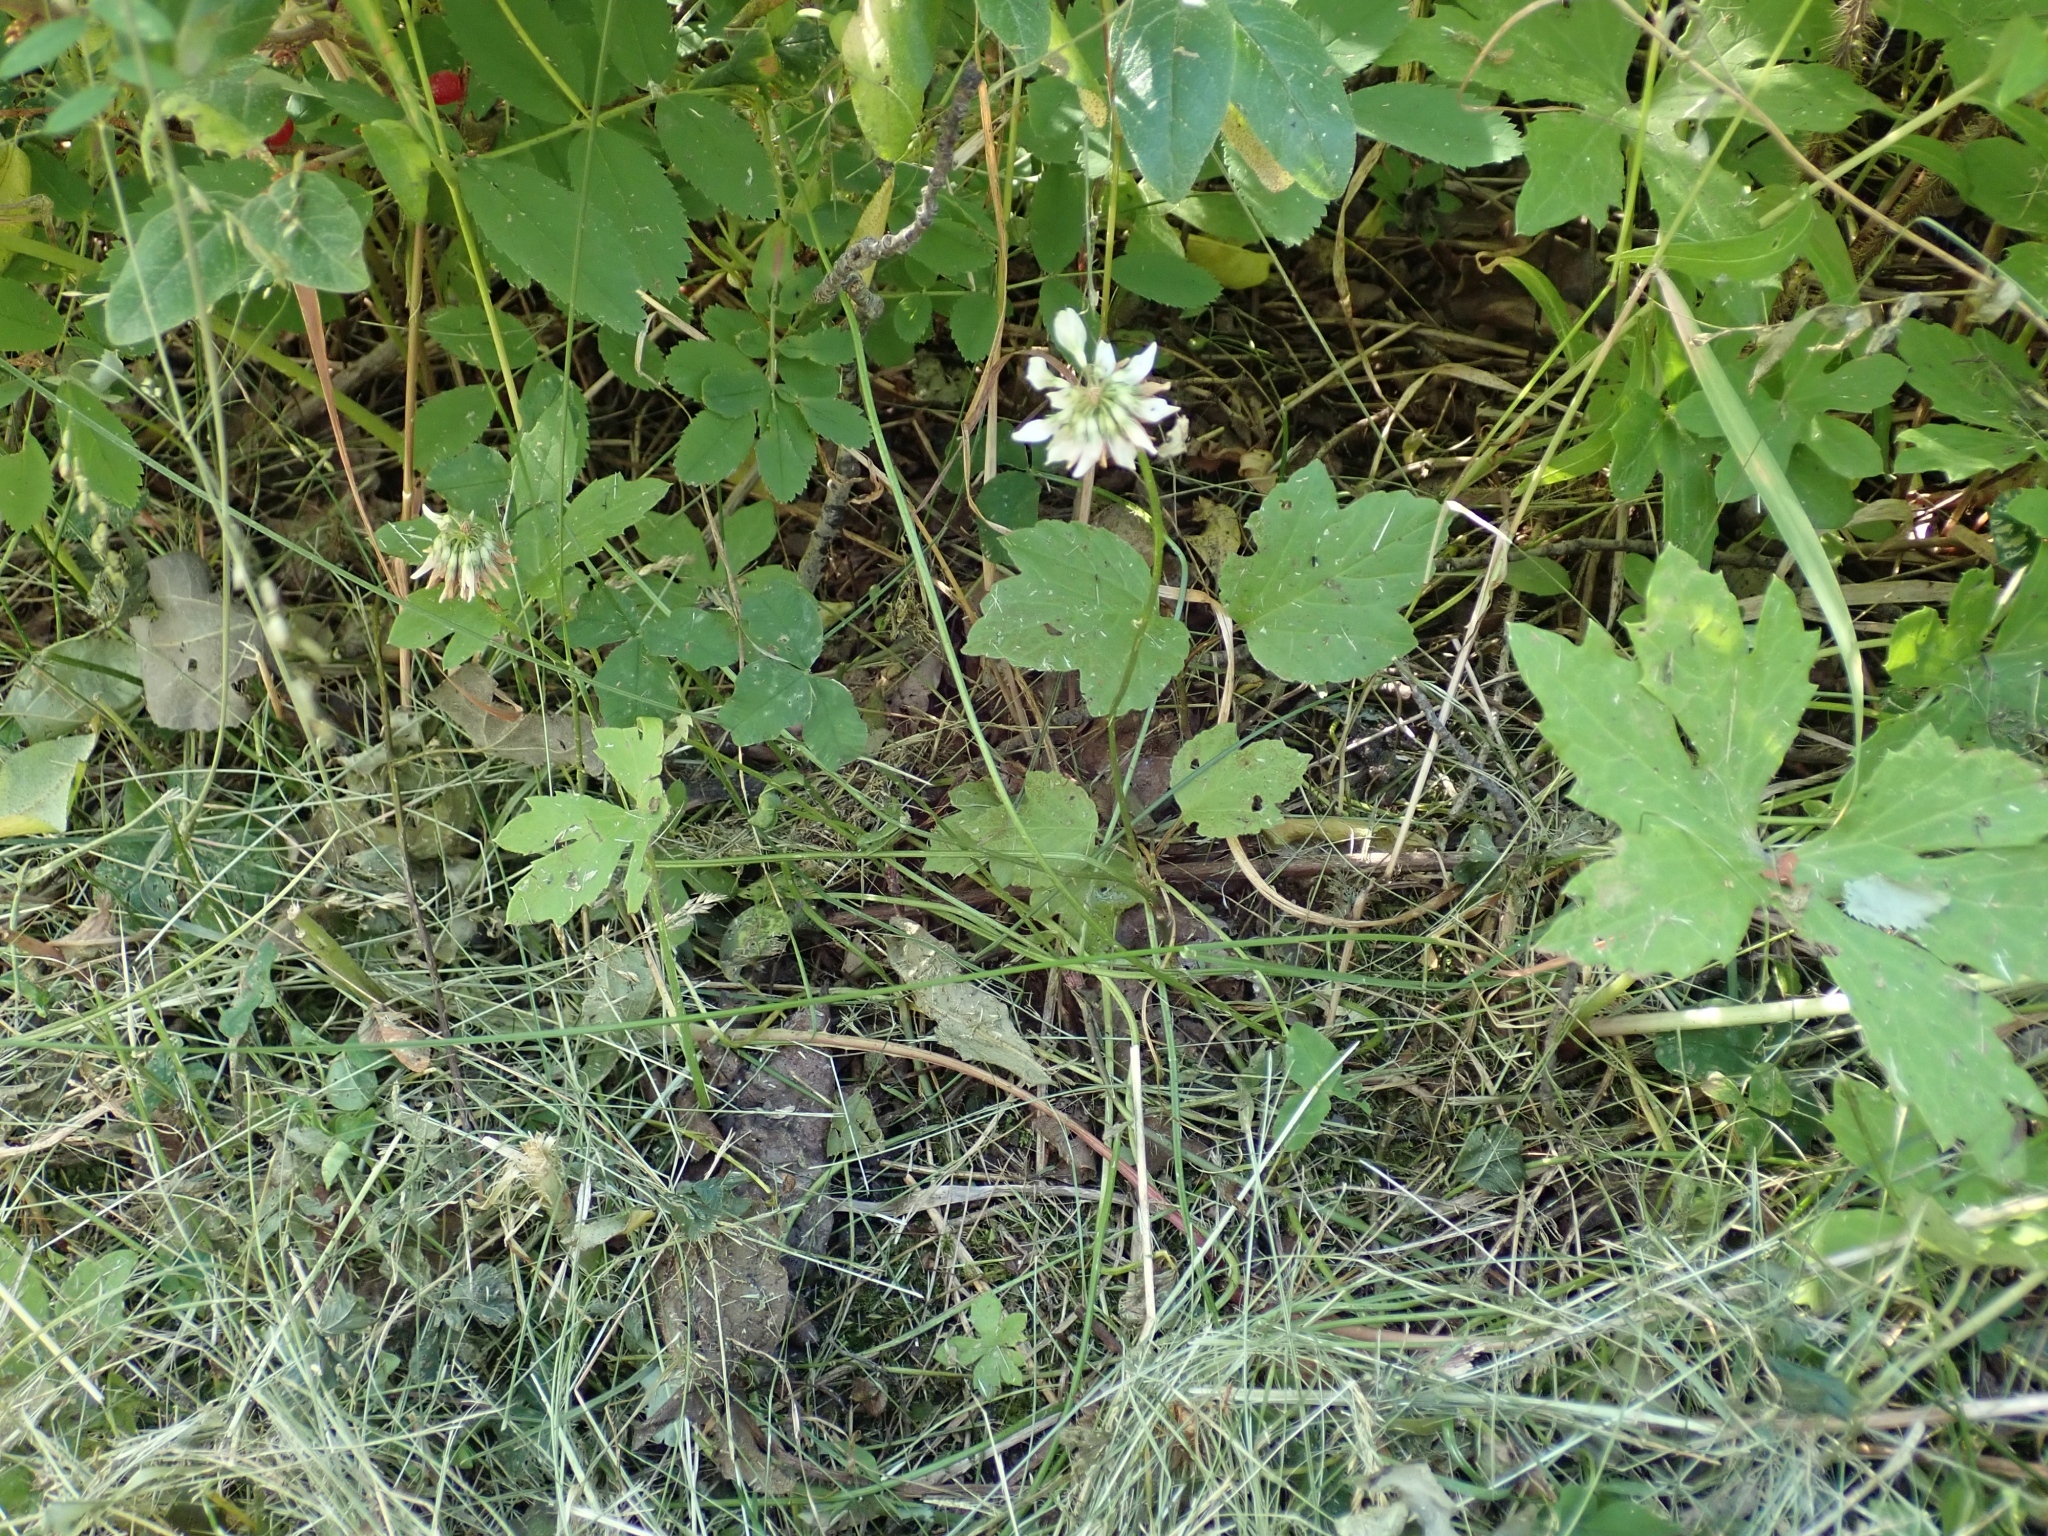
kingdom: Plantae
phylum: Tracheophyta
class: Magnoliopsida
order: Fabales
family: Fabaceae
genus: Trifolium
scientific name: Trifolium repens
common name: White clover
